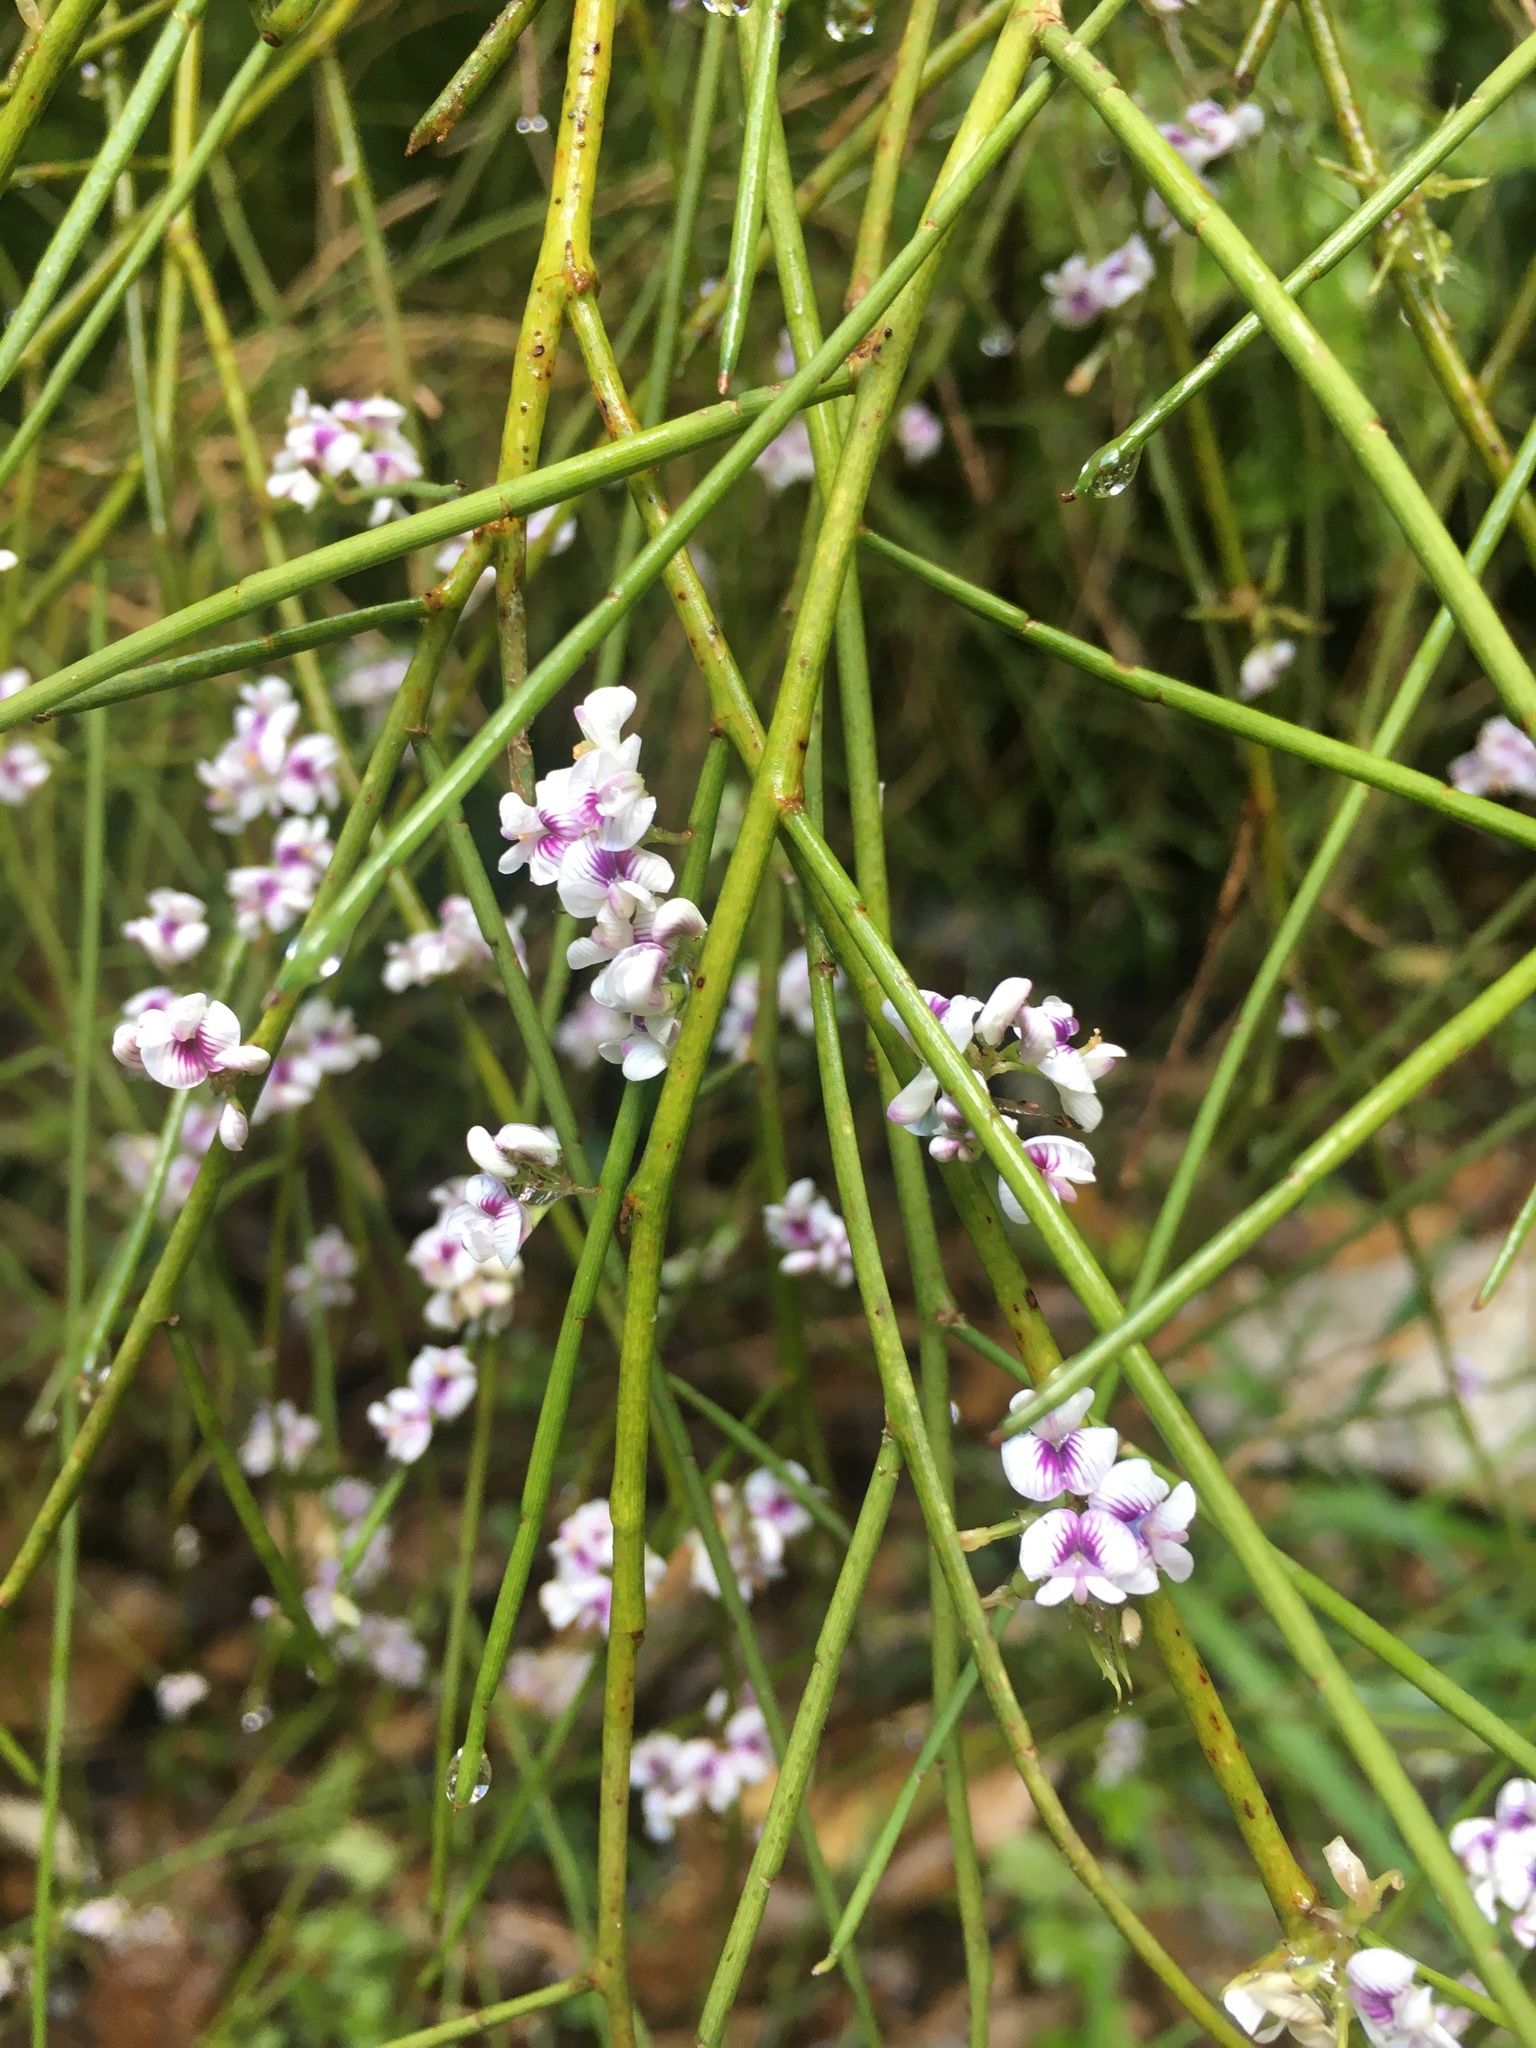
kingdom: Plantae
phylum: Tracheophyta
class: Magnoliopsida
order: Fabales
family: Fabaceae
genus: Carmichaelia
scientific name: Carmichaelia australis
